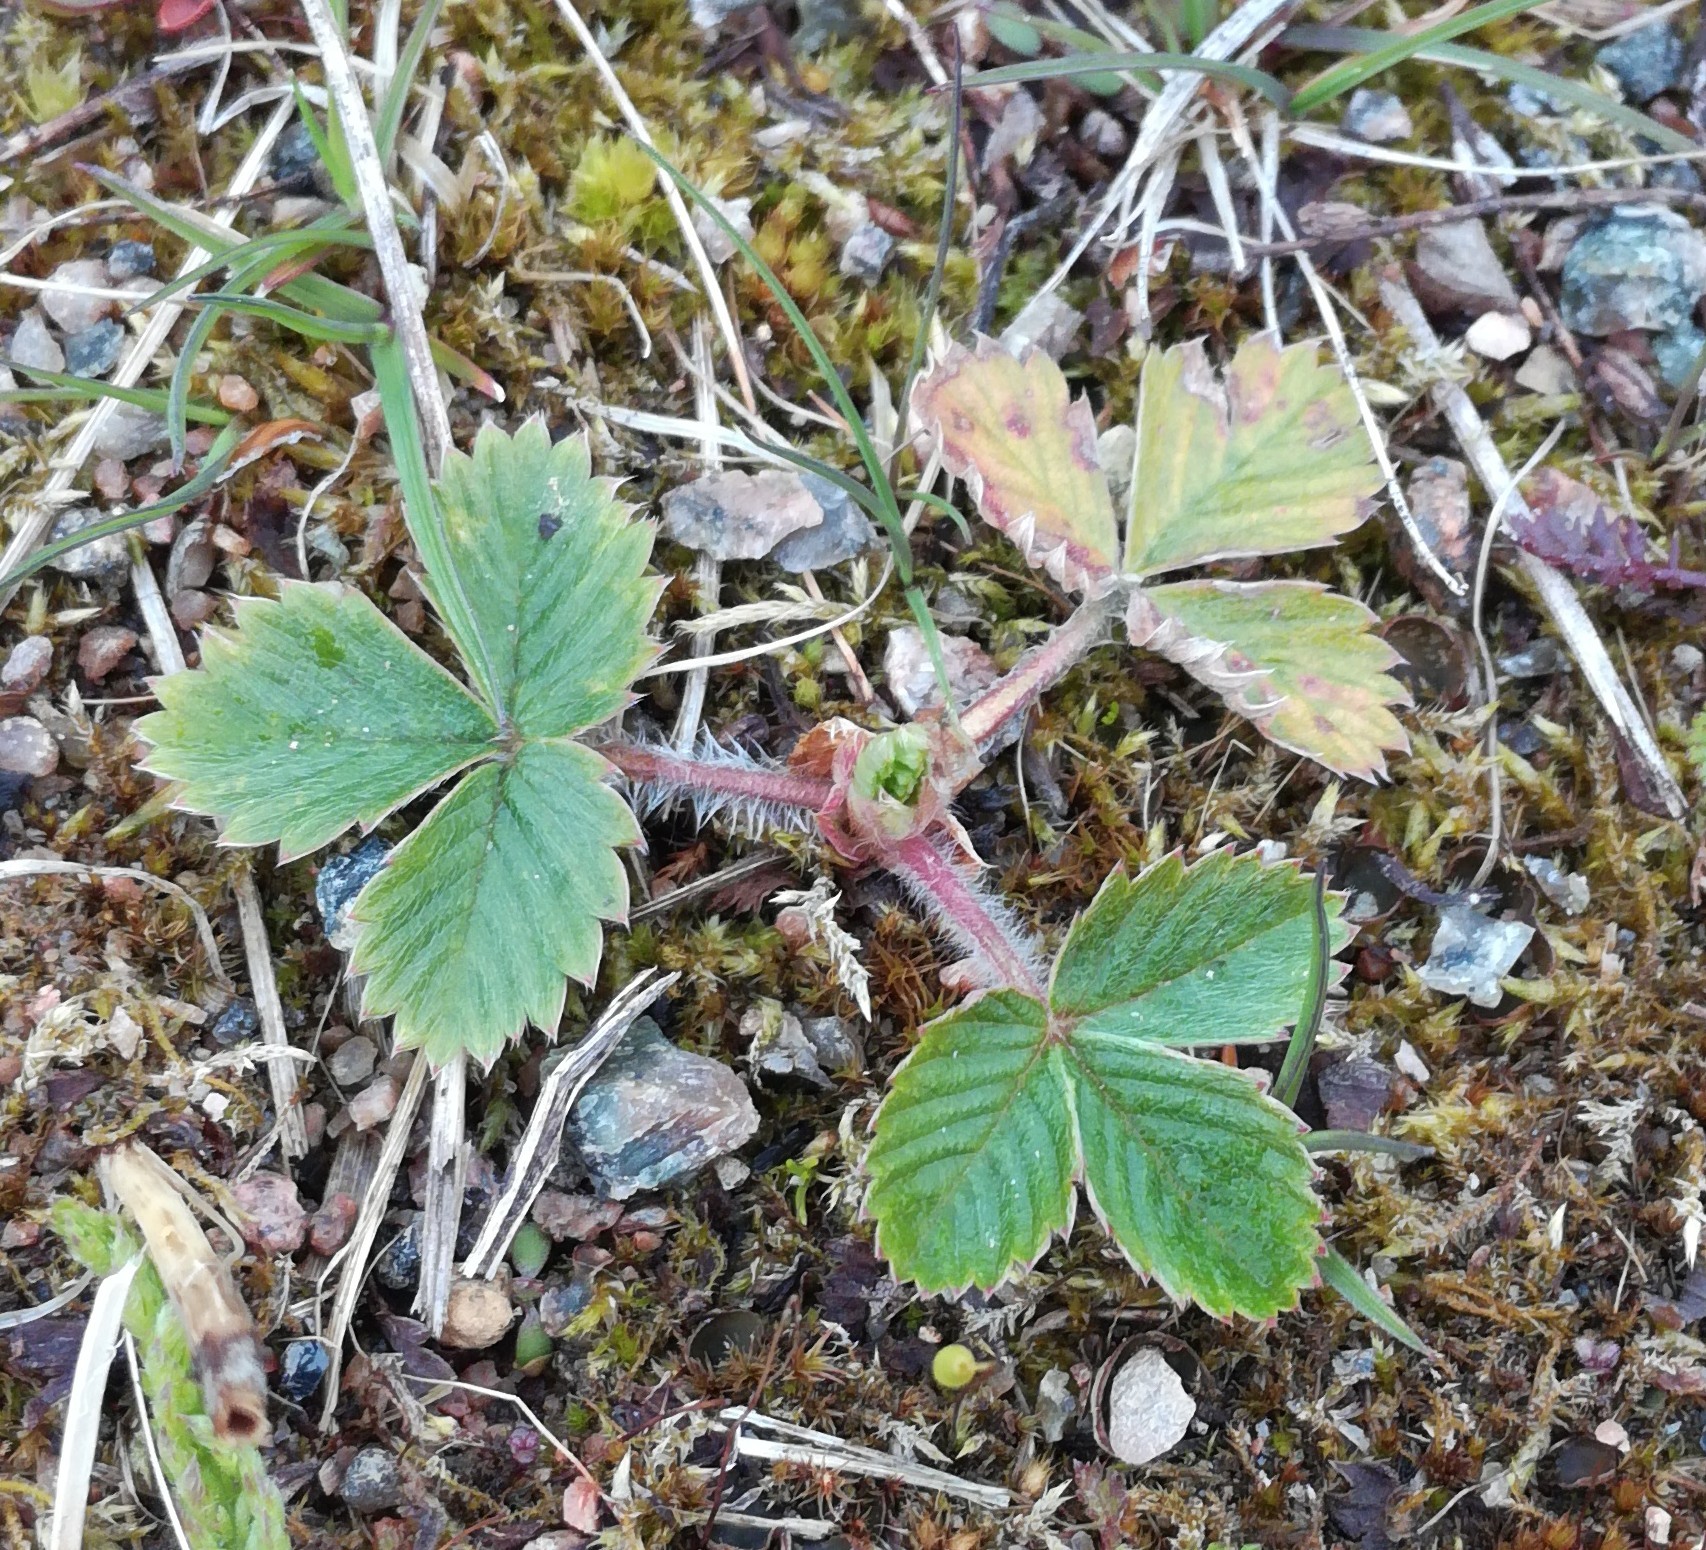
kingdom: Plantae
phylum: Tracheophyta
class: Magnoliopsida
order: Rosales
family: Rosaceae
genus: Fragaria
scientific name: Fragaria vesca
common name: Wild strawberry
